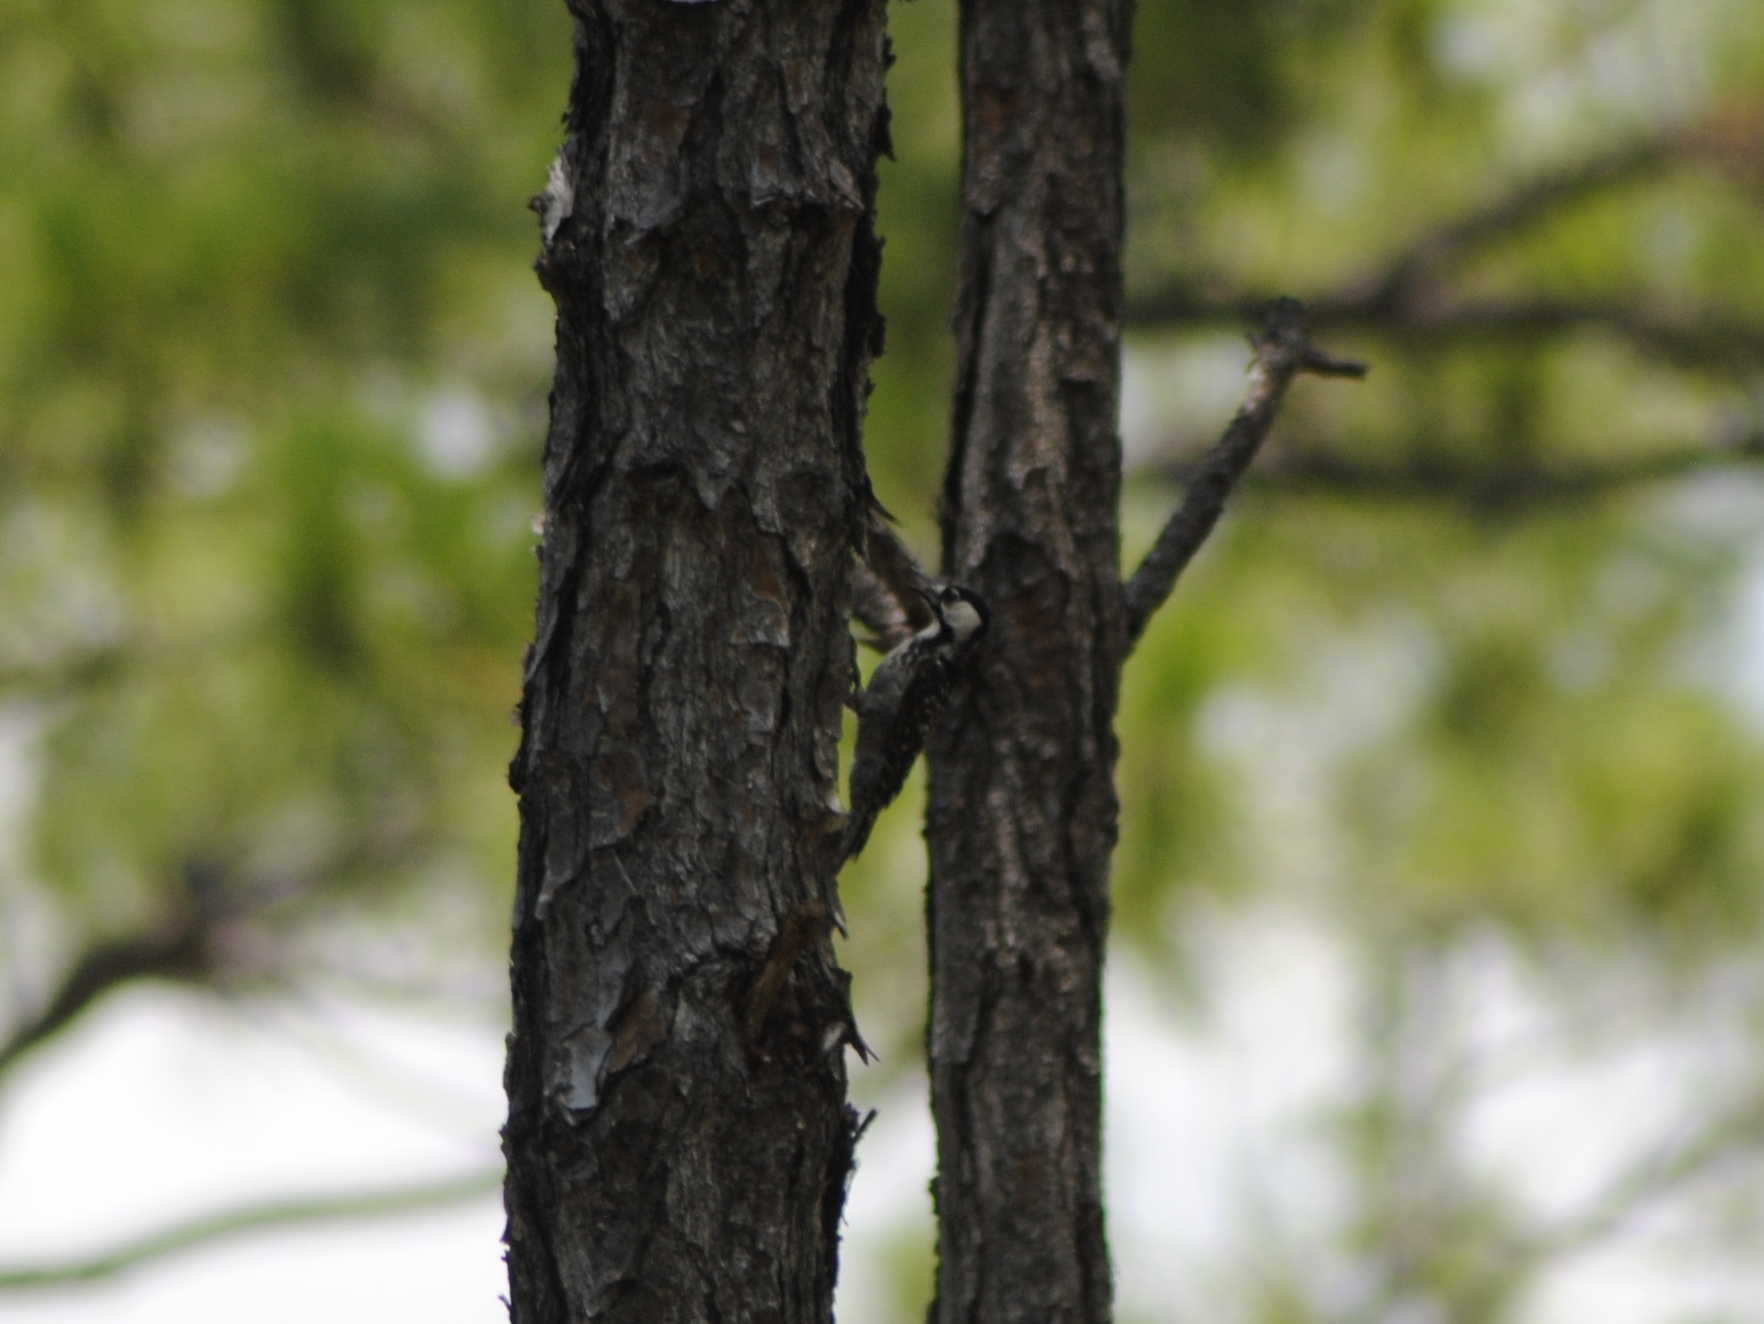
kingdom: Animalia
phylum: Chordata
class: Aves
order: Piciformes
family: Picidae
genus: Leuconotopicus
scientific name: Leuconotopicus borealis
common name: Red-cockaded woodpecker
